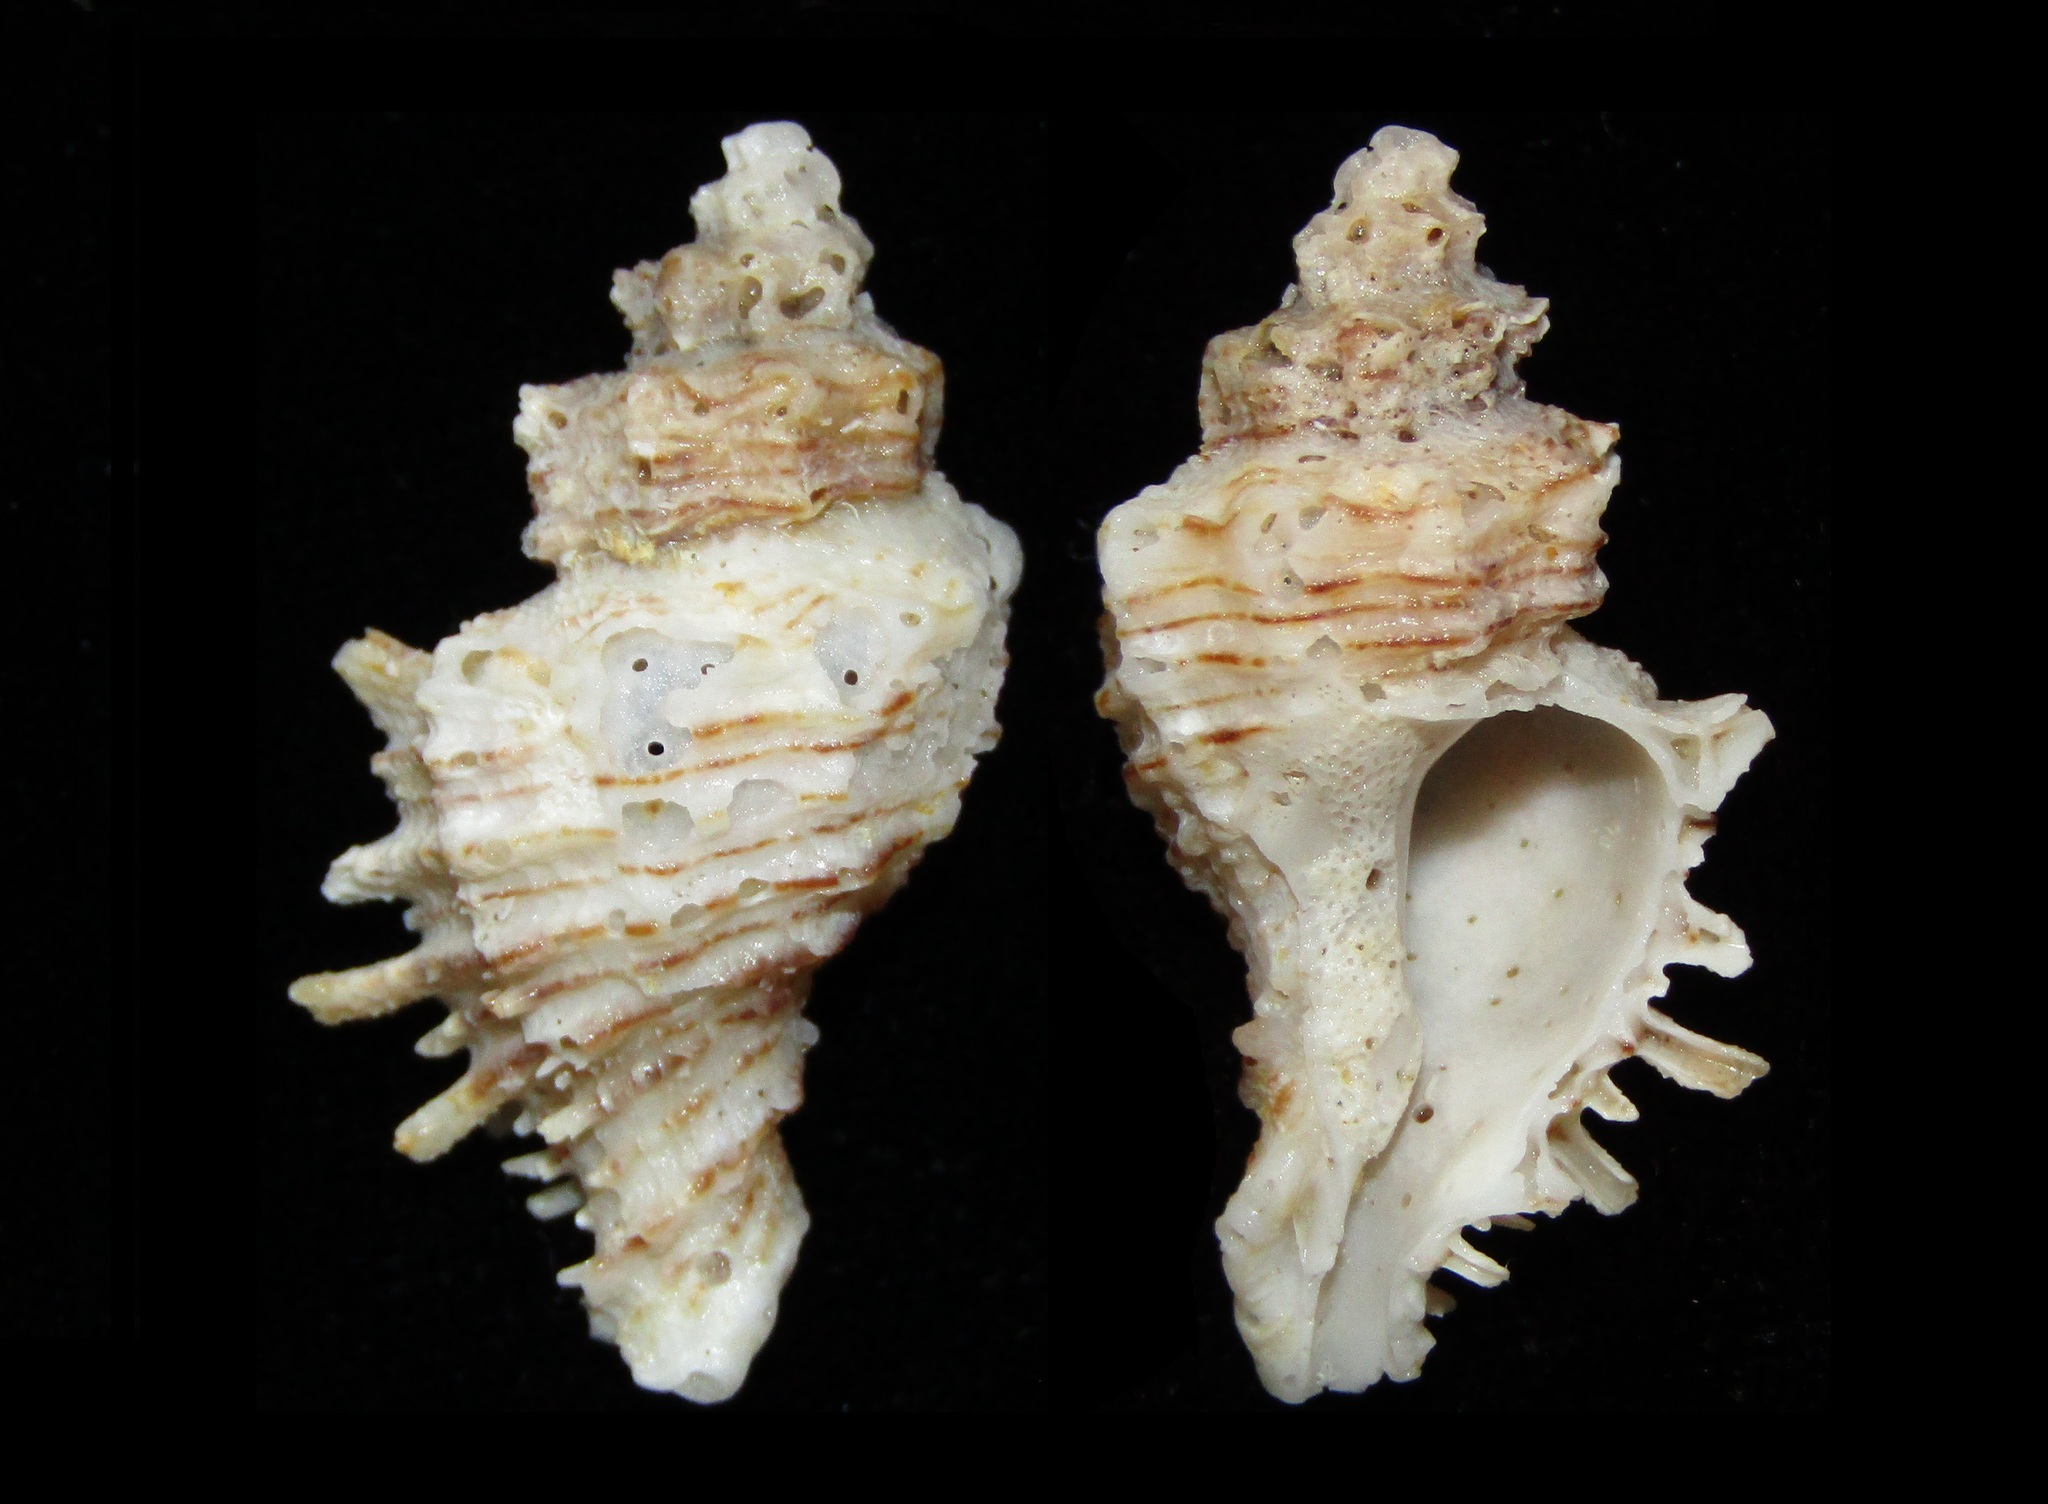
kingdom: Animalia
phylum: Mollusca
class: Gastropoda
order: Neogastropoda
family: Muricidae
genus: Rolandiella
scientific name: Rolandiella scotti
